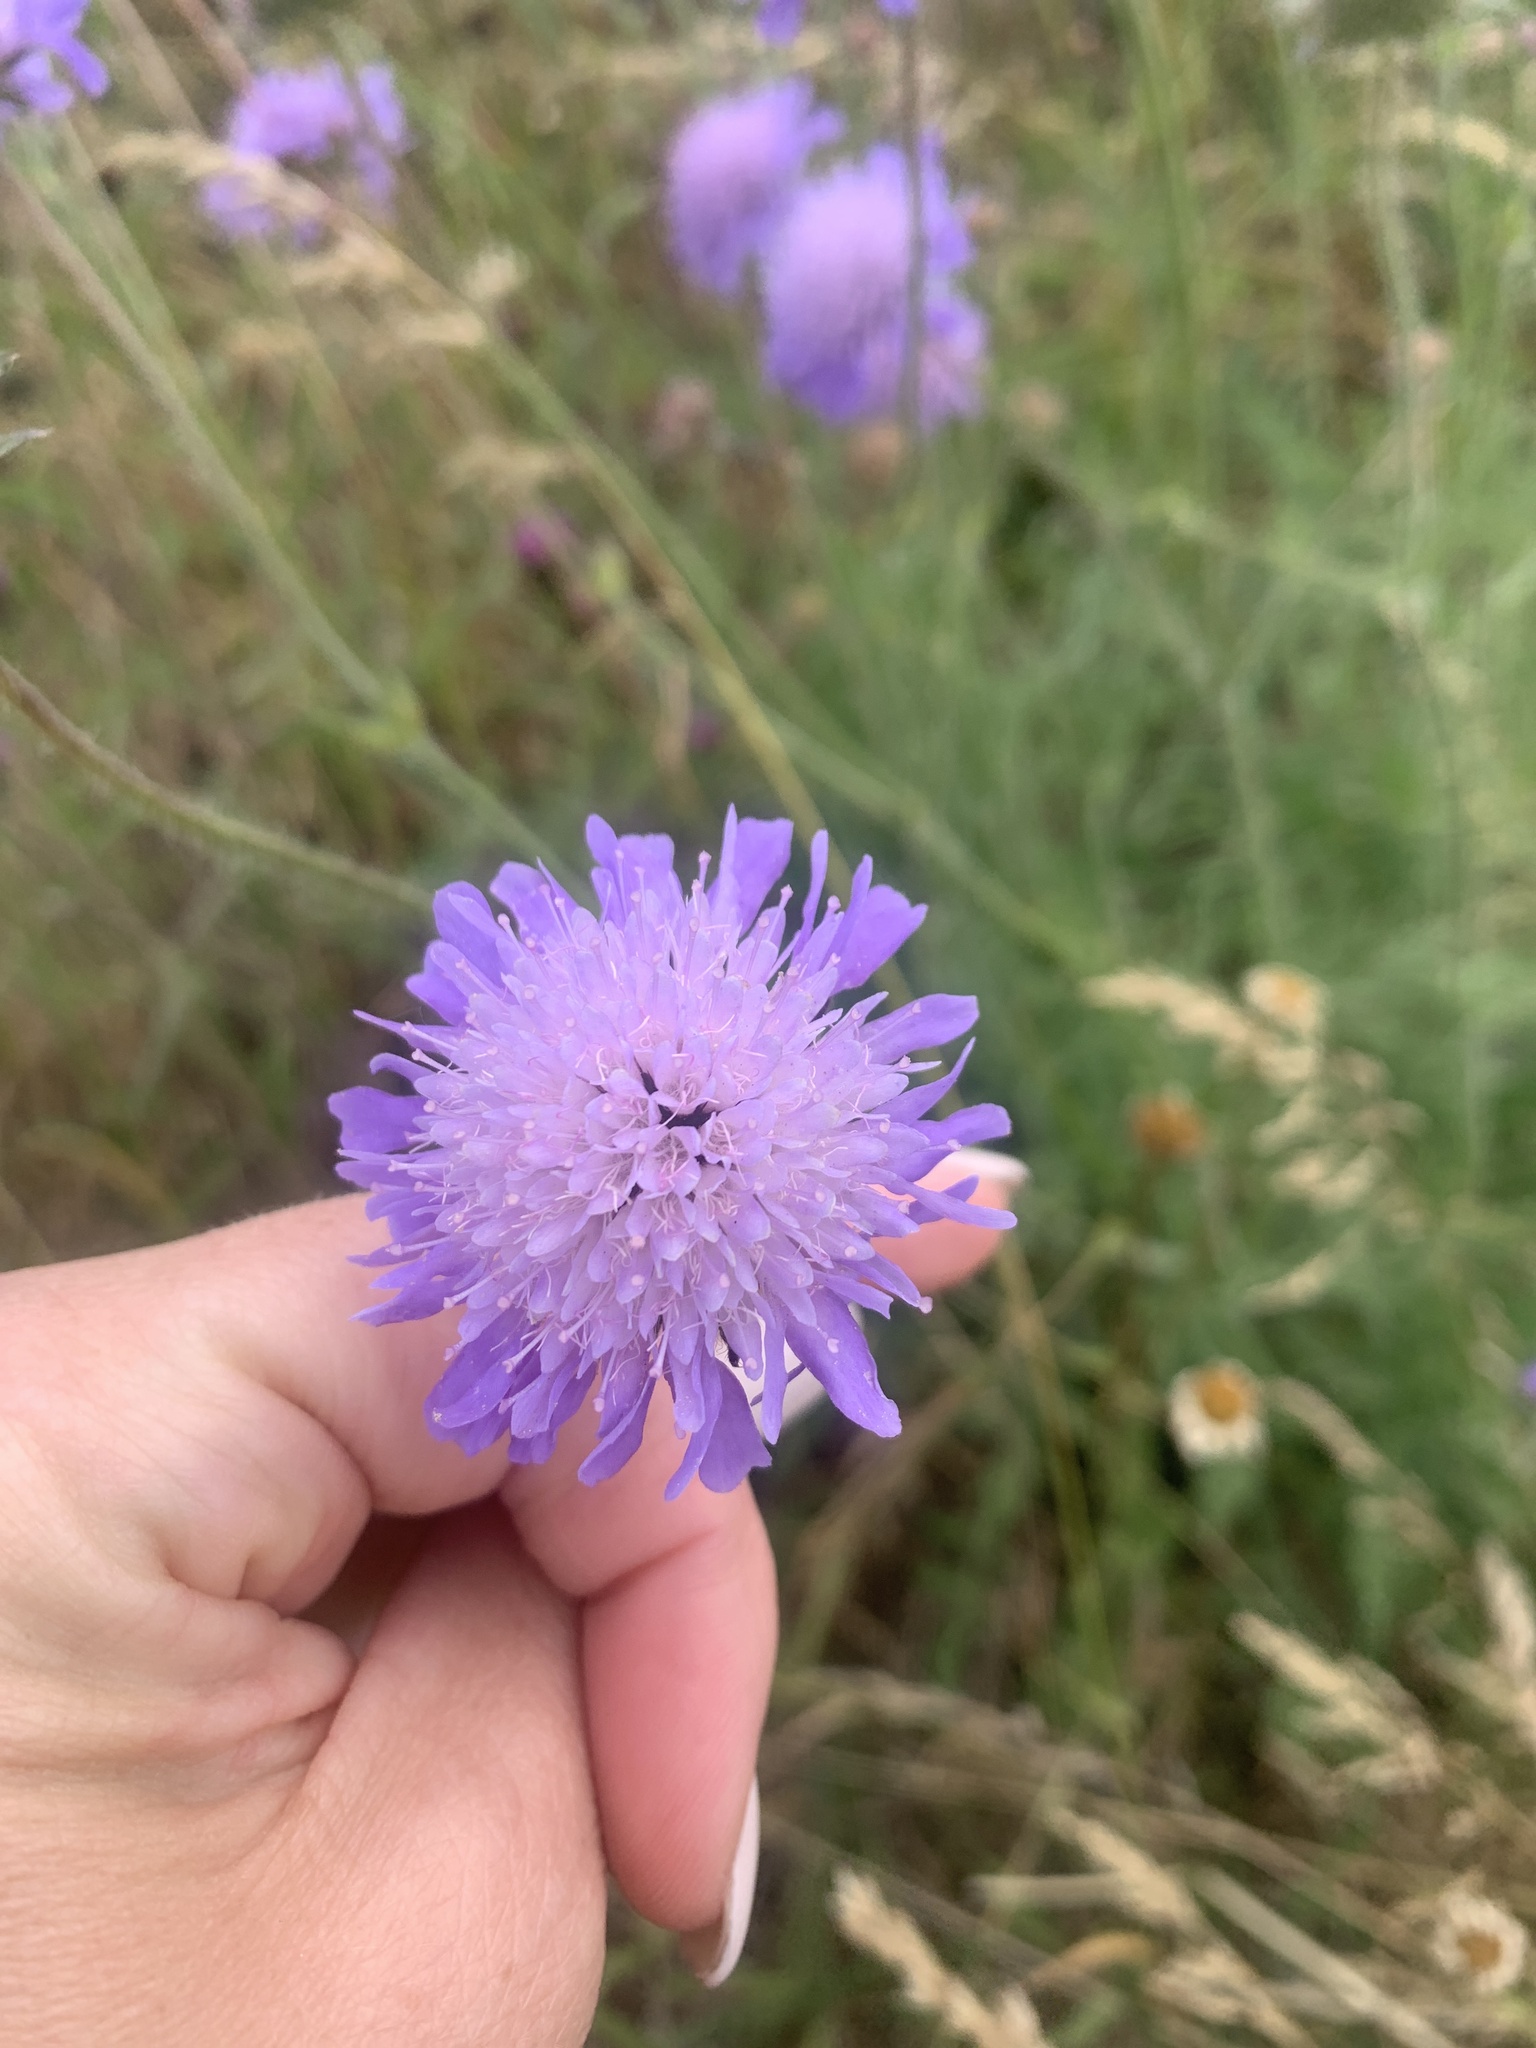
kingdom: Plantae
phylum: Tracheophyta
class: Magnoliopsida
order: Dipsacales
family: Caprifoliaceae
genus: Knautia
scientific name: Knautia arvensis
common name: Field scabiosa
